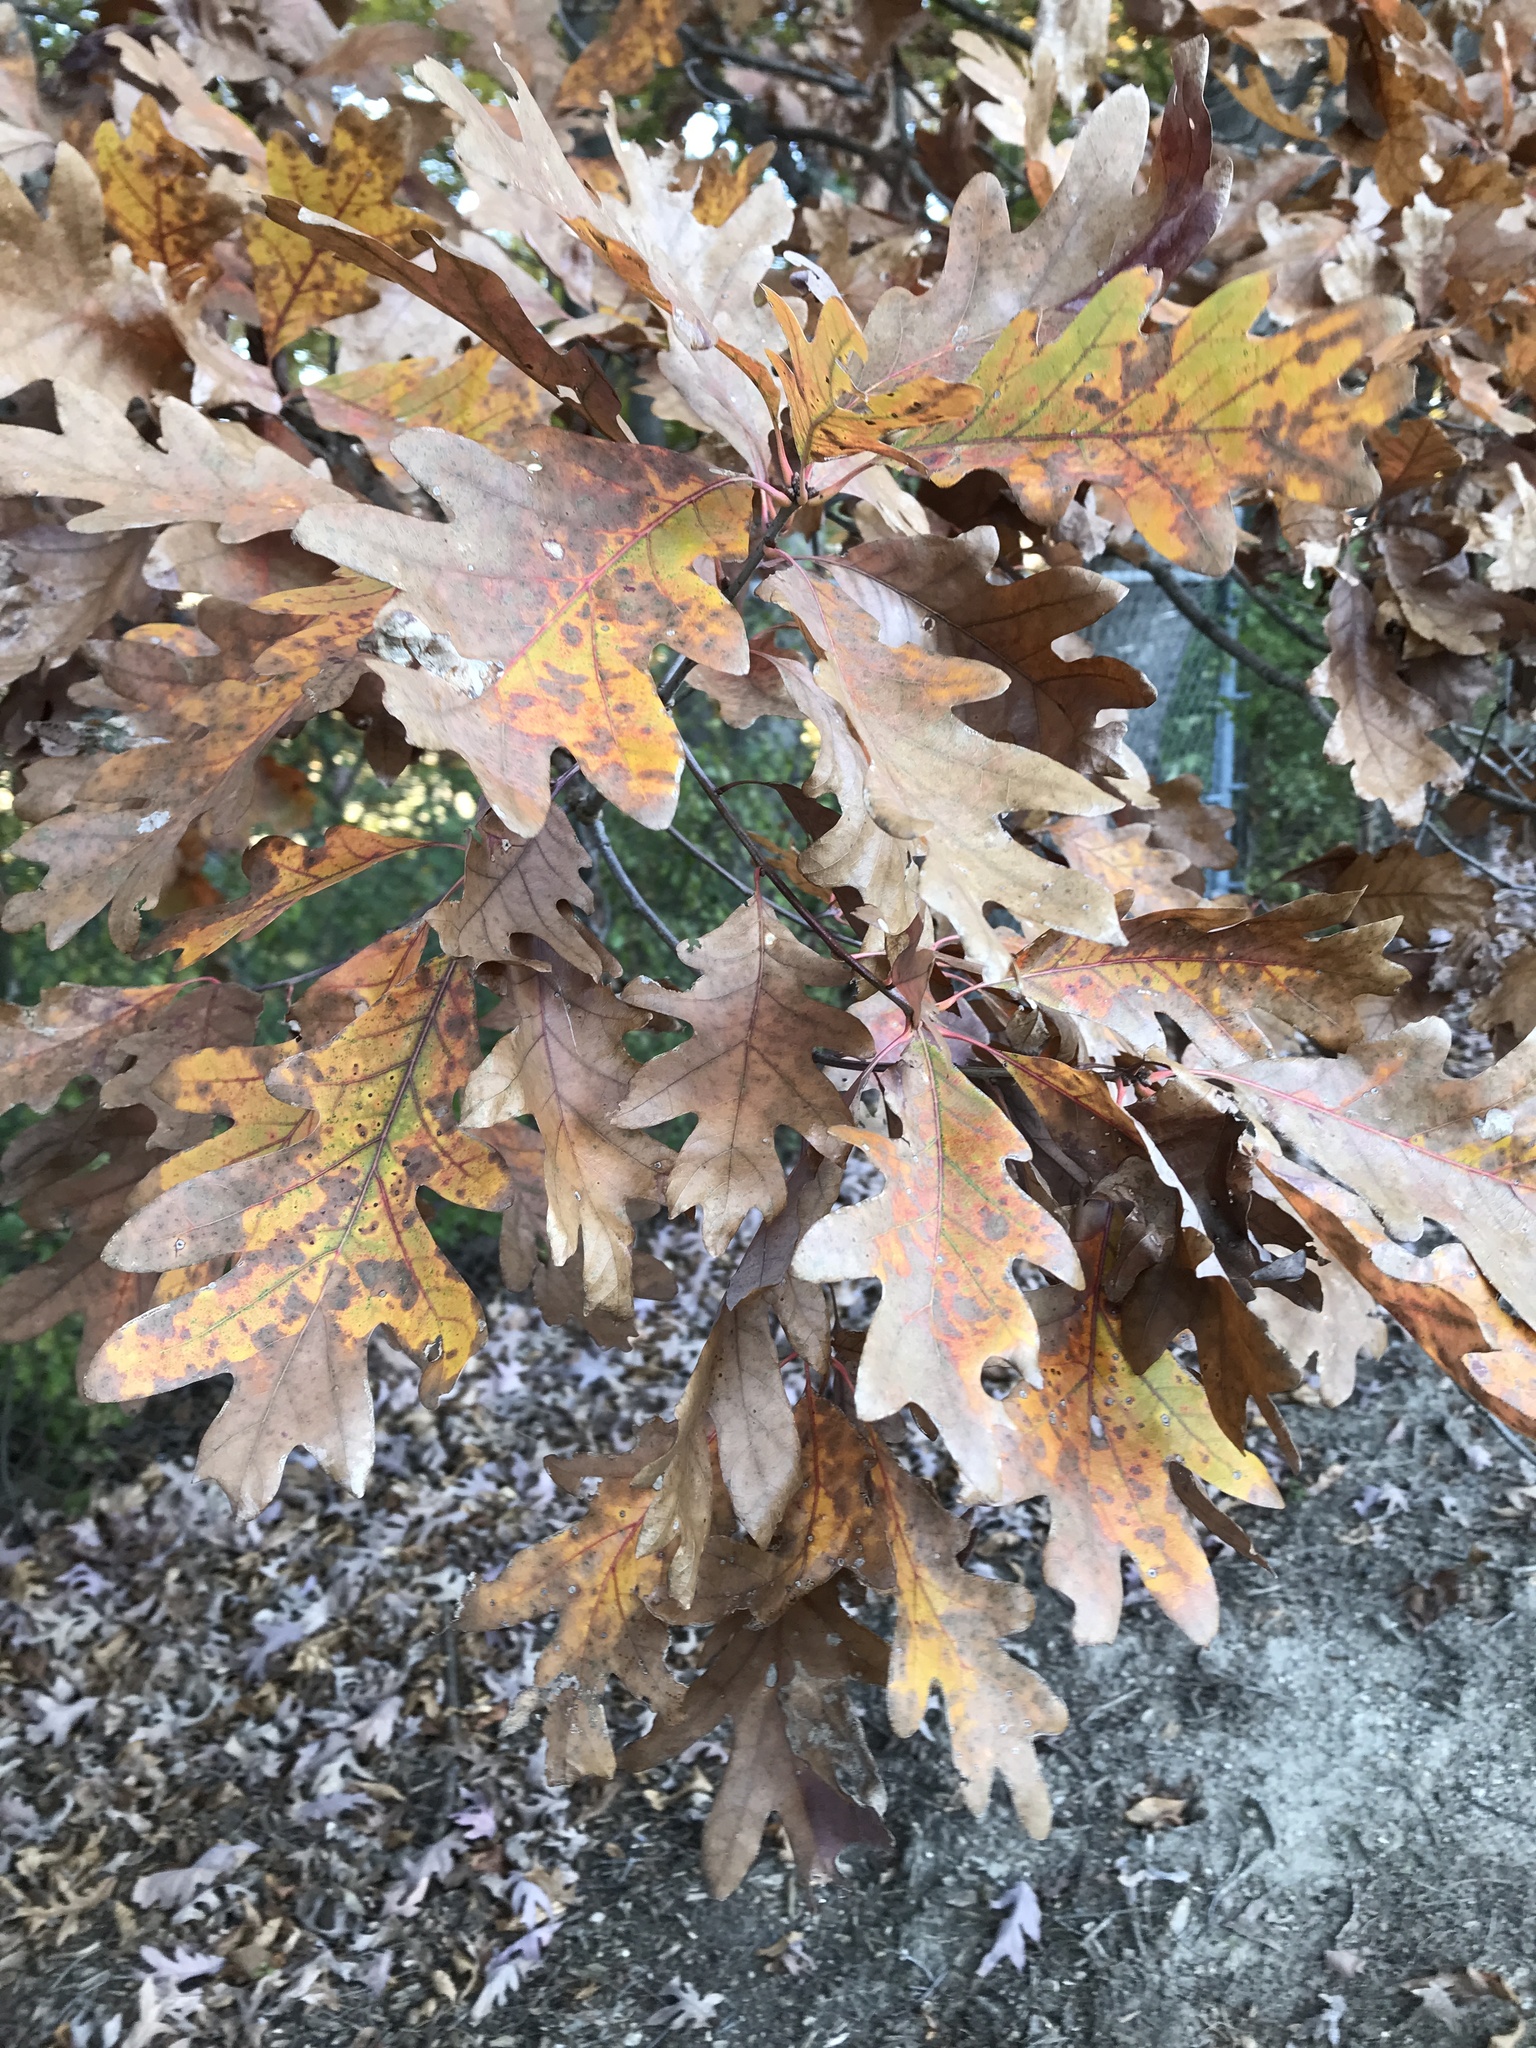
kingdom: Plantae
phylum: Tracheophyta
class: Magnoliopsida
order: Fagales
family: Fagaceae
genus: Quercus
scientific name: Quercus alba
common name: White oak
